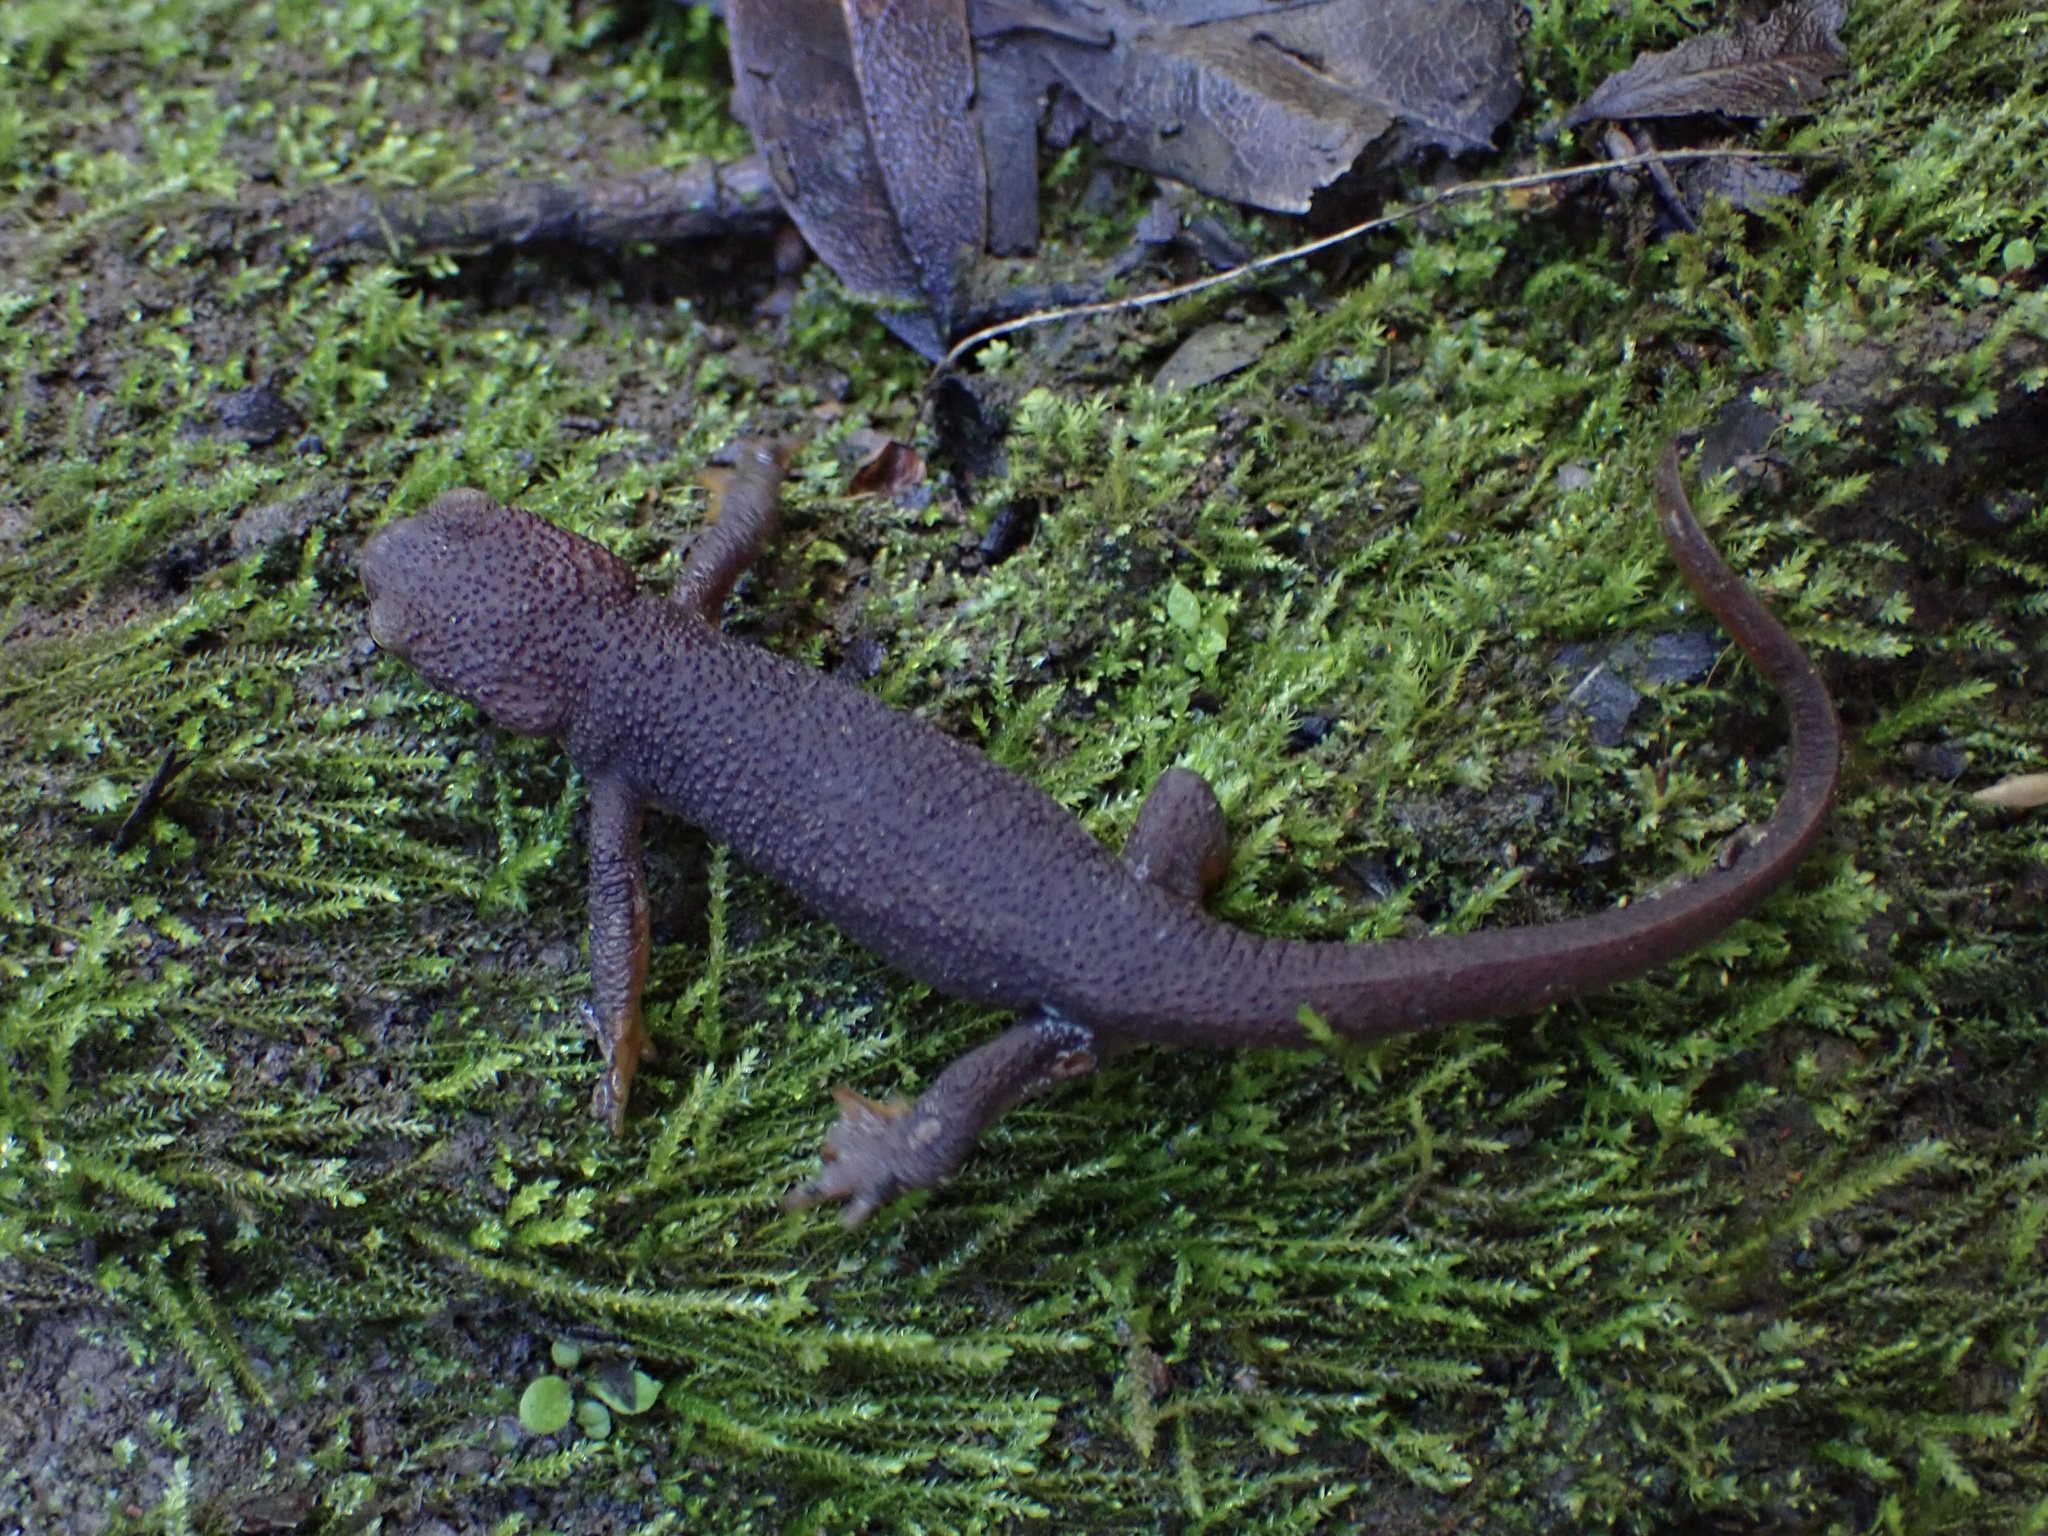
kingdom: Animalia
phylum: Chordata
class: Amphibia
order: Caudata
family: Salamandridae
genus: Taricha
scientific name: Taricha granulosa
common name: Roughskin newt
